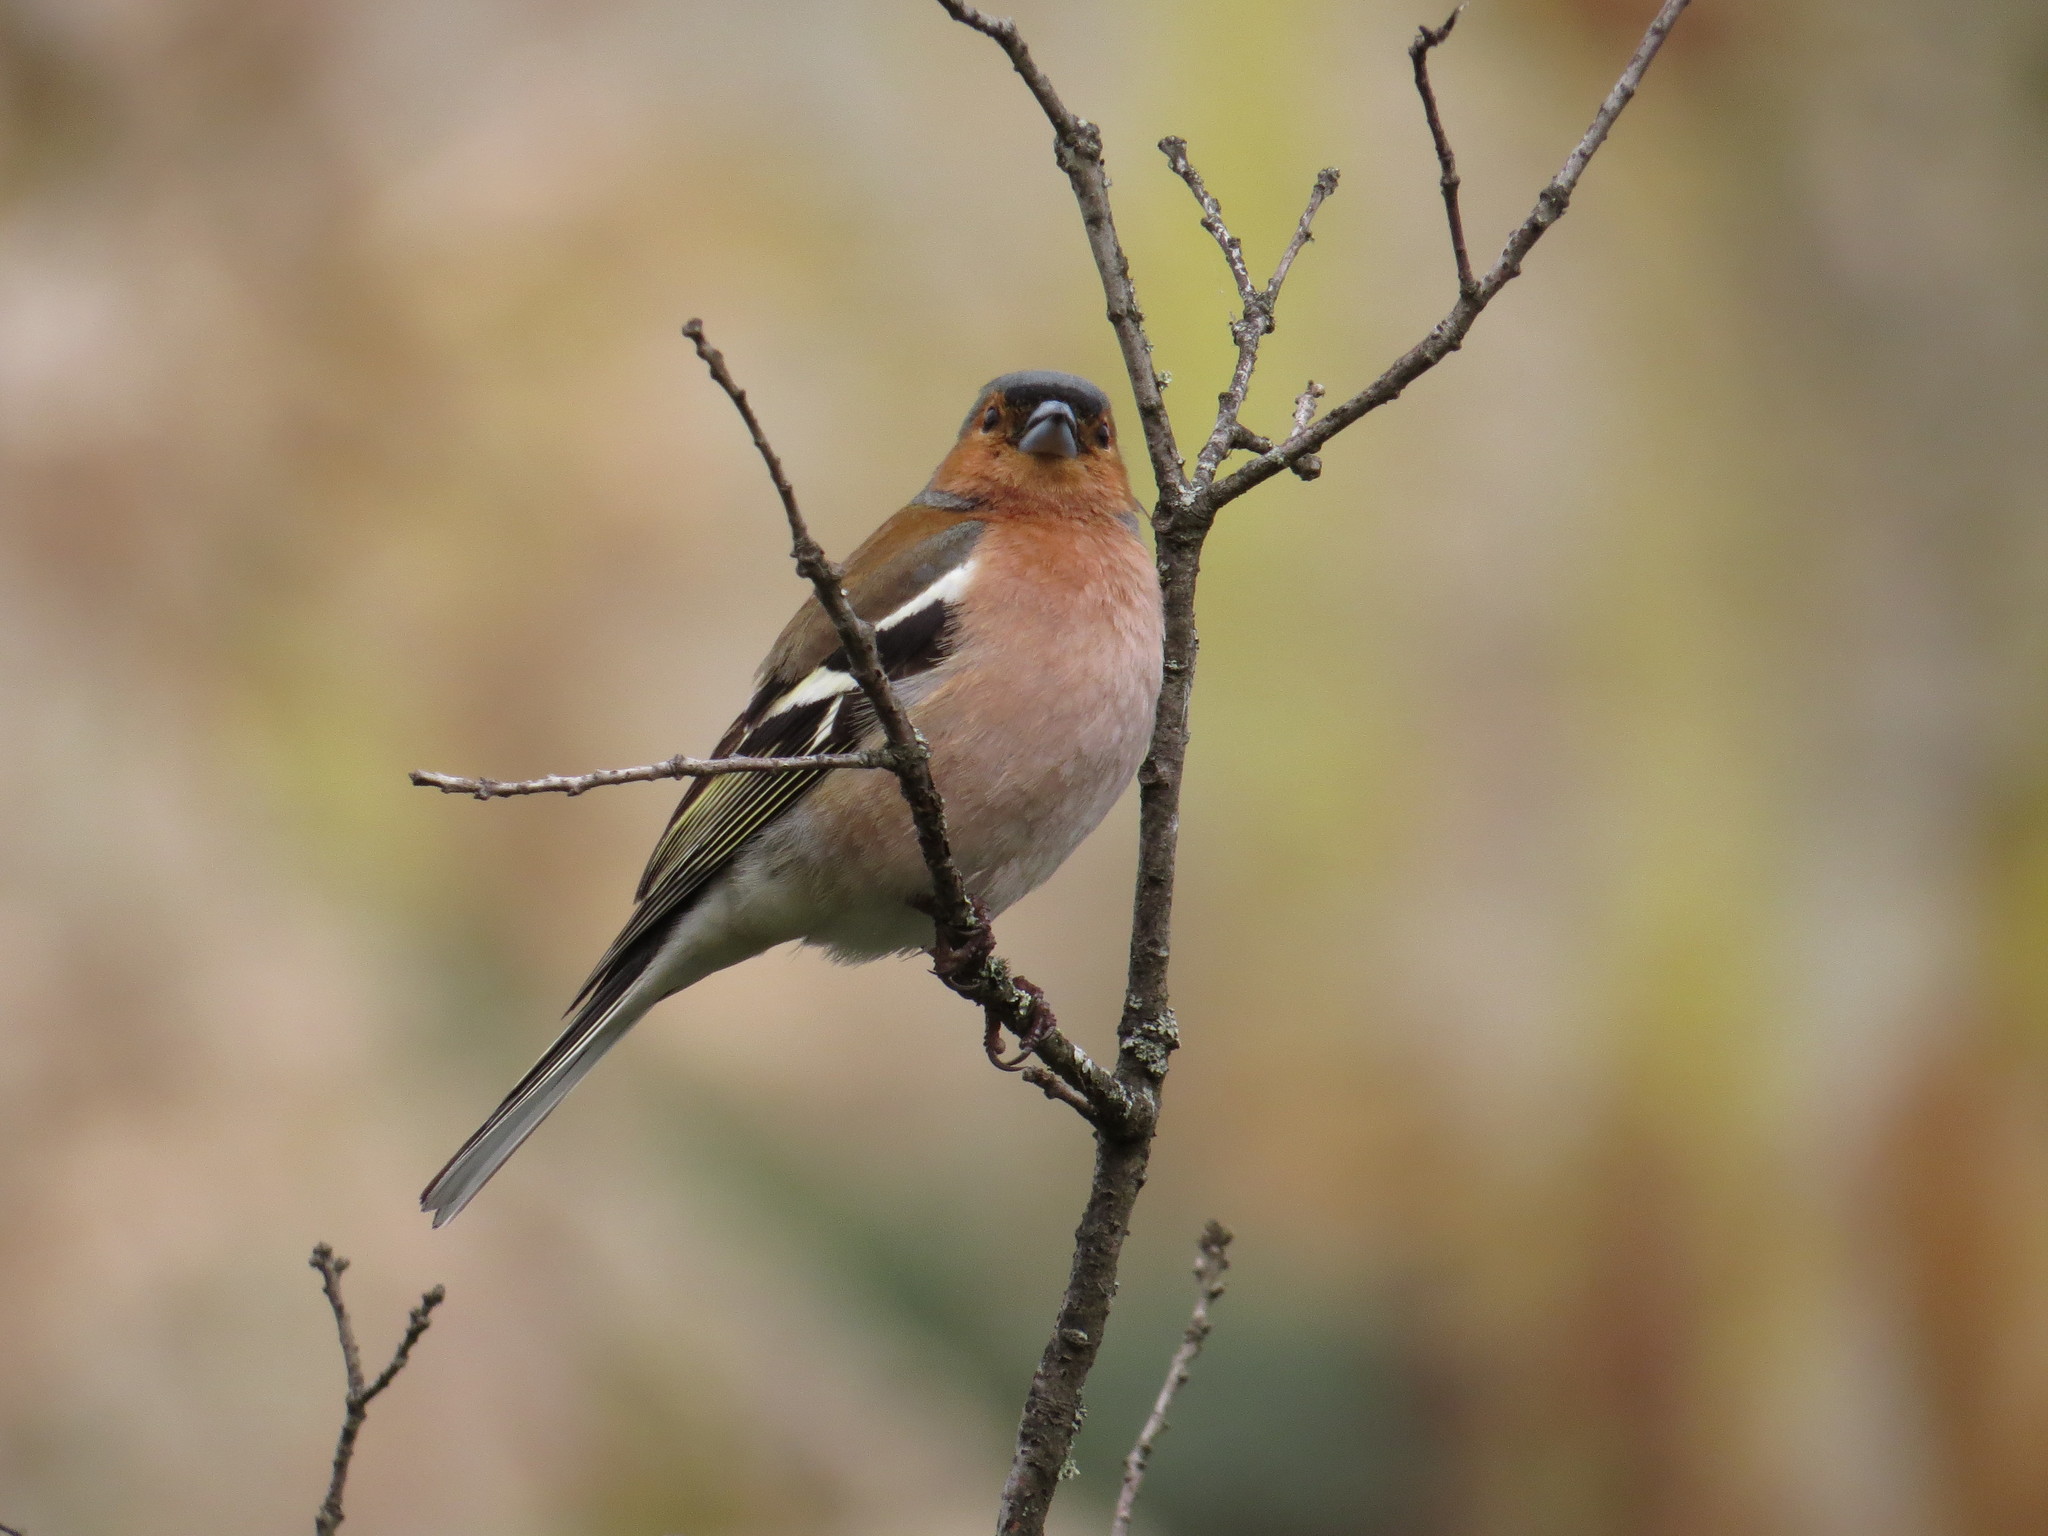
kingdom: Animalia
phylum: Chordata
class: Aves
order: Passeriformes
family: Fringillidae
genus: Fringilla
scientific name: Fringilla coelebs
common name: Common chaffinch
